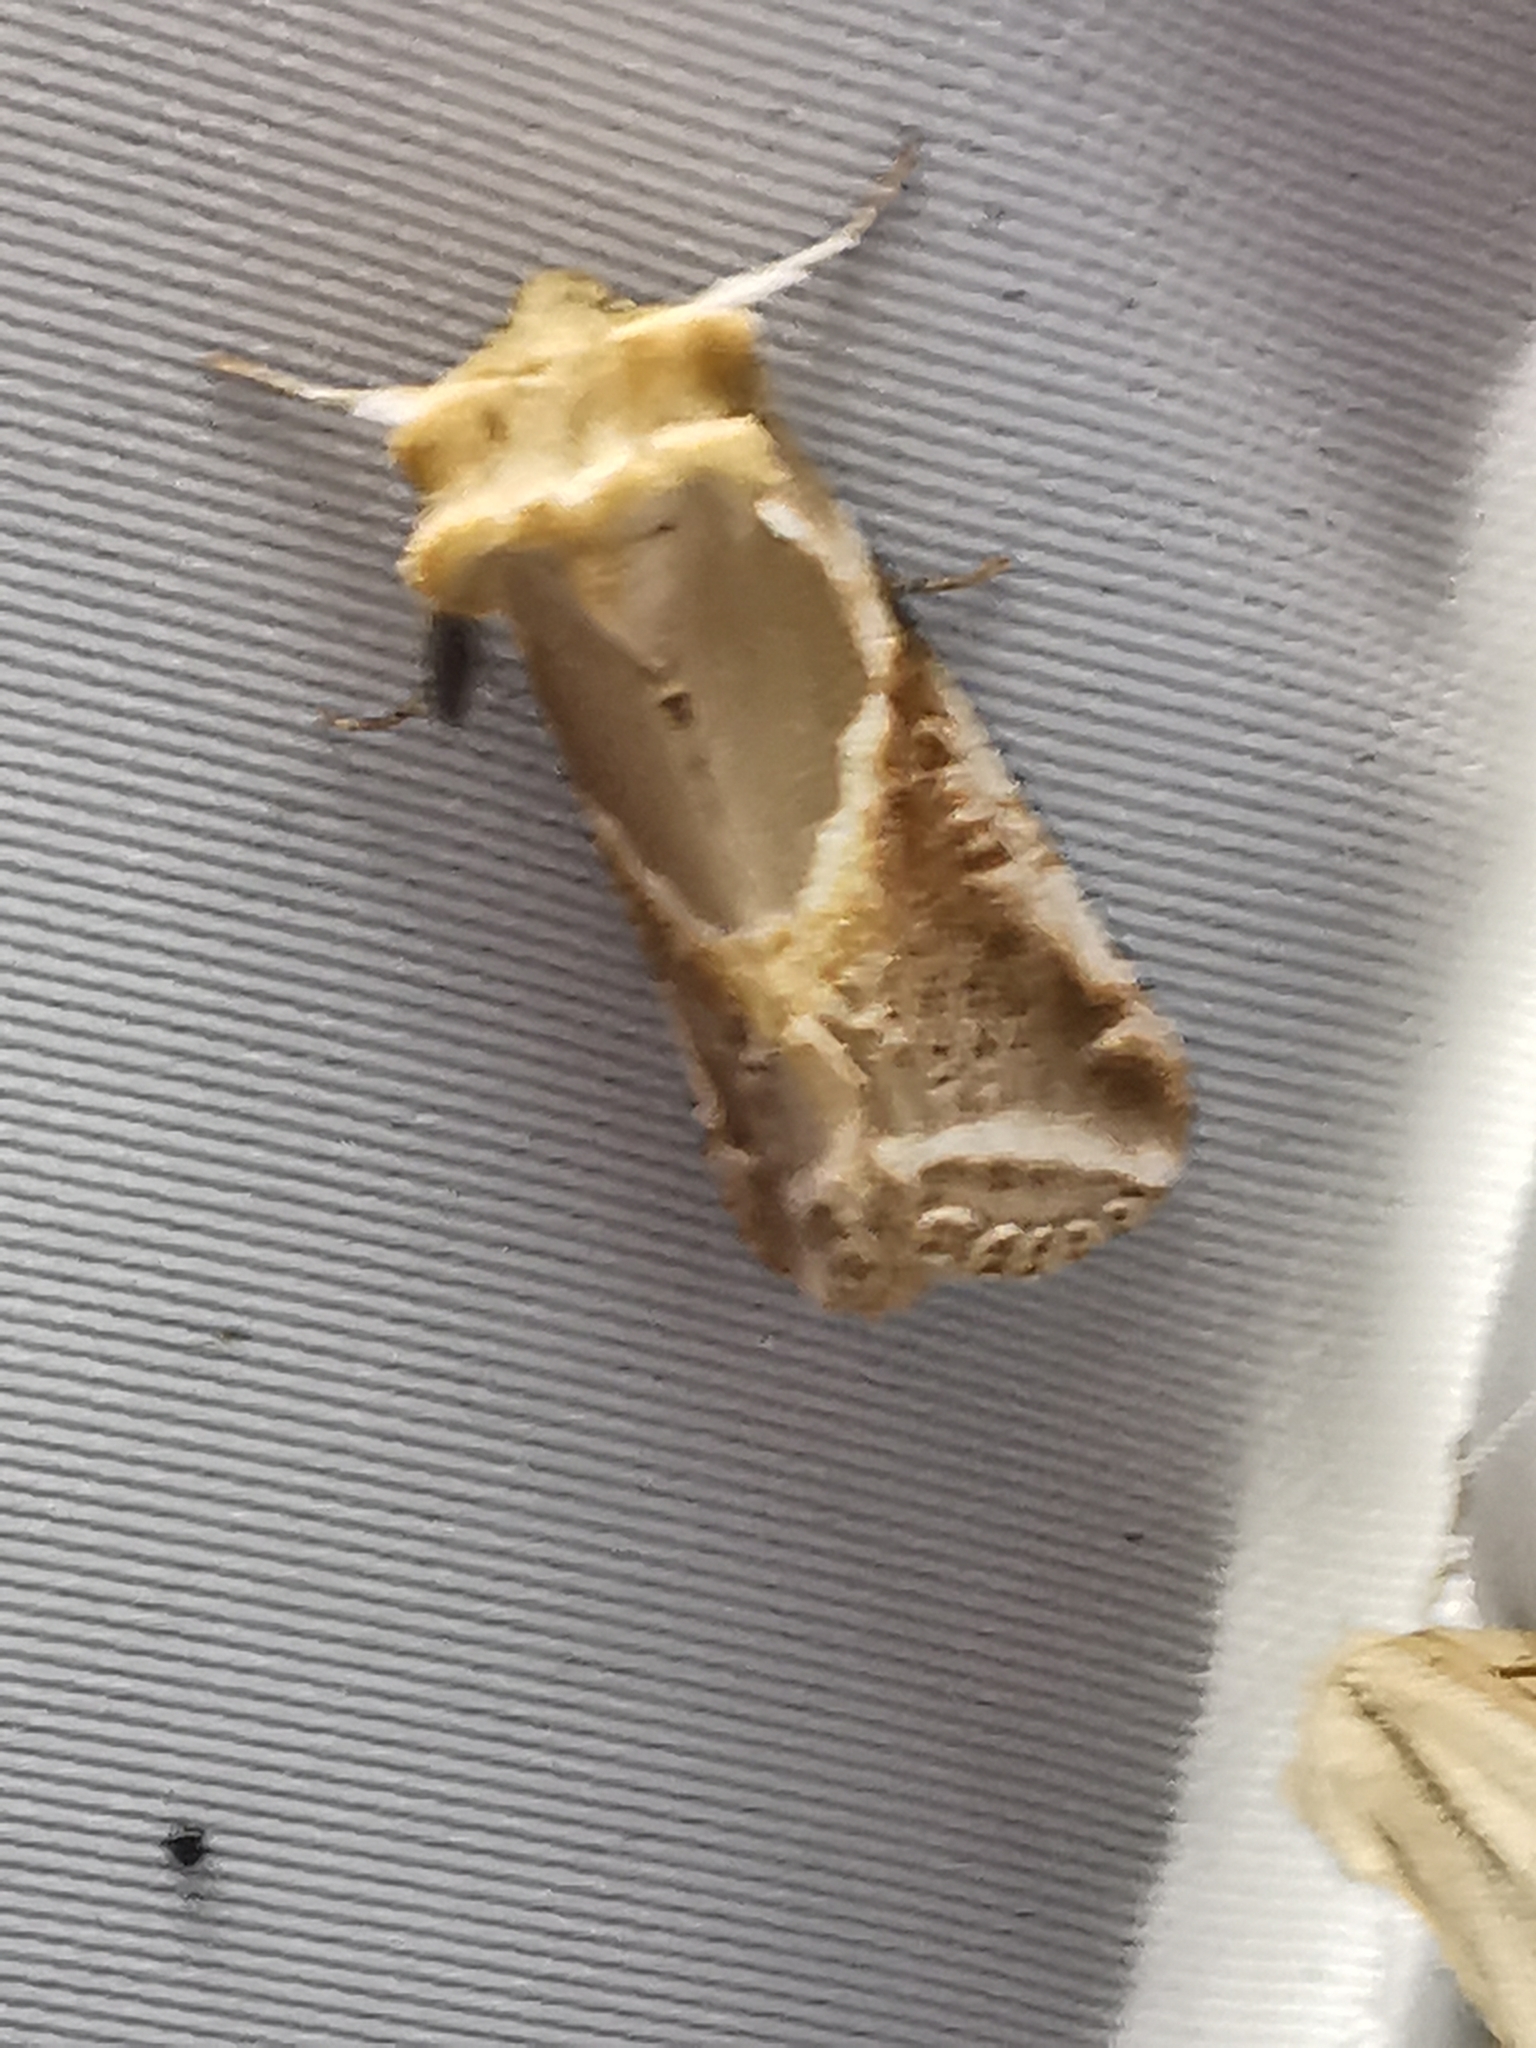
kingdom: Animalia
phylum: Arthropoda
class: Insecta
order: Lepidoptera
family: Drepanidae
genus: Habrosyne
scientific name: Habrosyne pyritoides
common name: Buff arches
